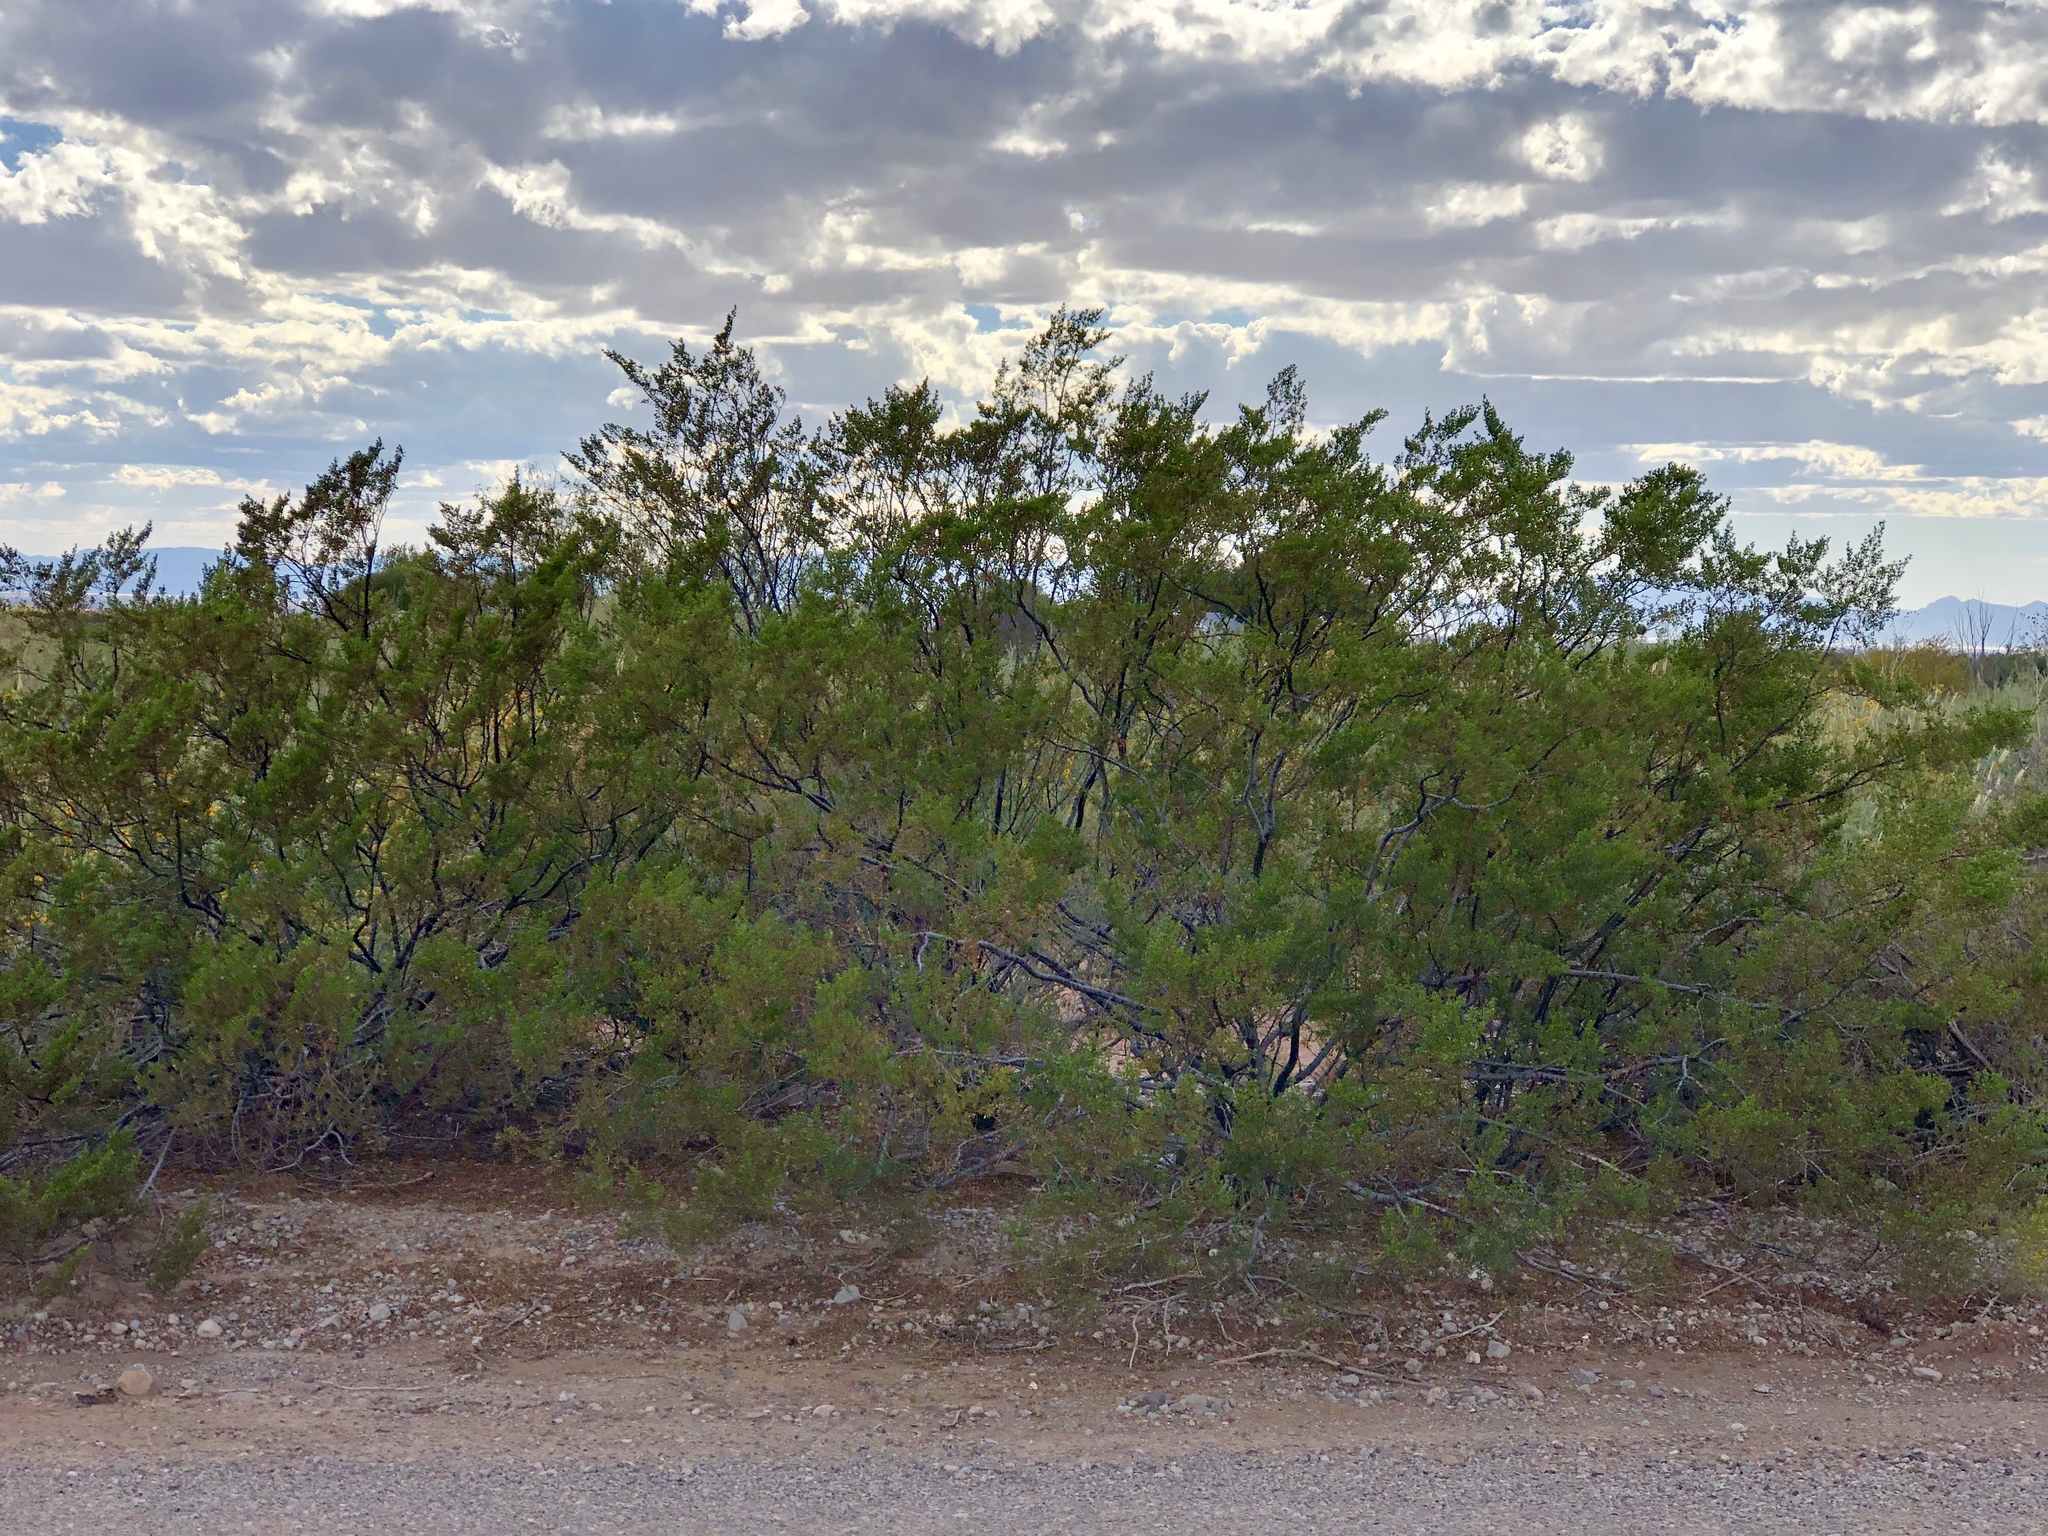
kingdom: Plantae
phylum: Tracheophyta
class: Magnoliopsida
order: Zygophyllales
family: Zygophyllaceae
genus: Larrea
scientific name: Larrea tridentata
